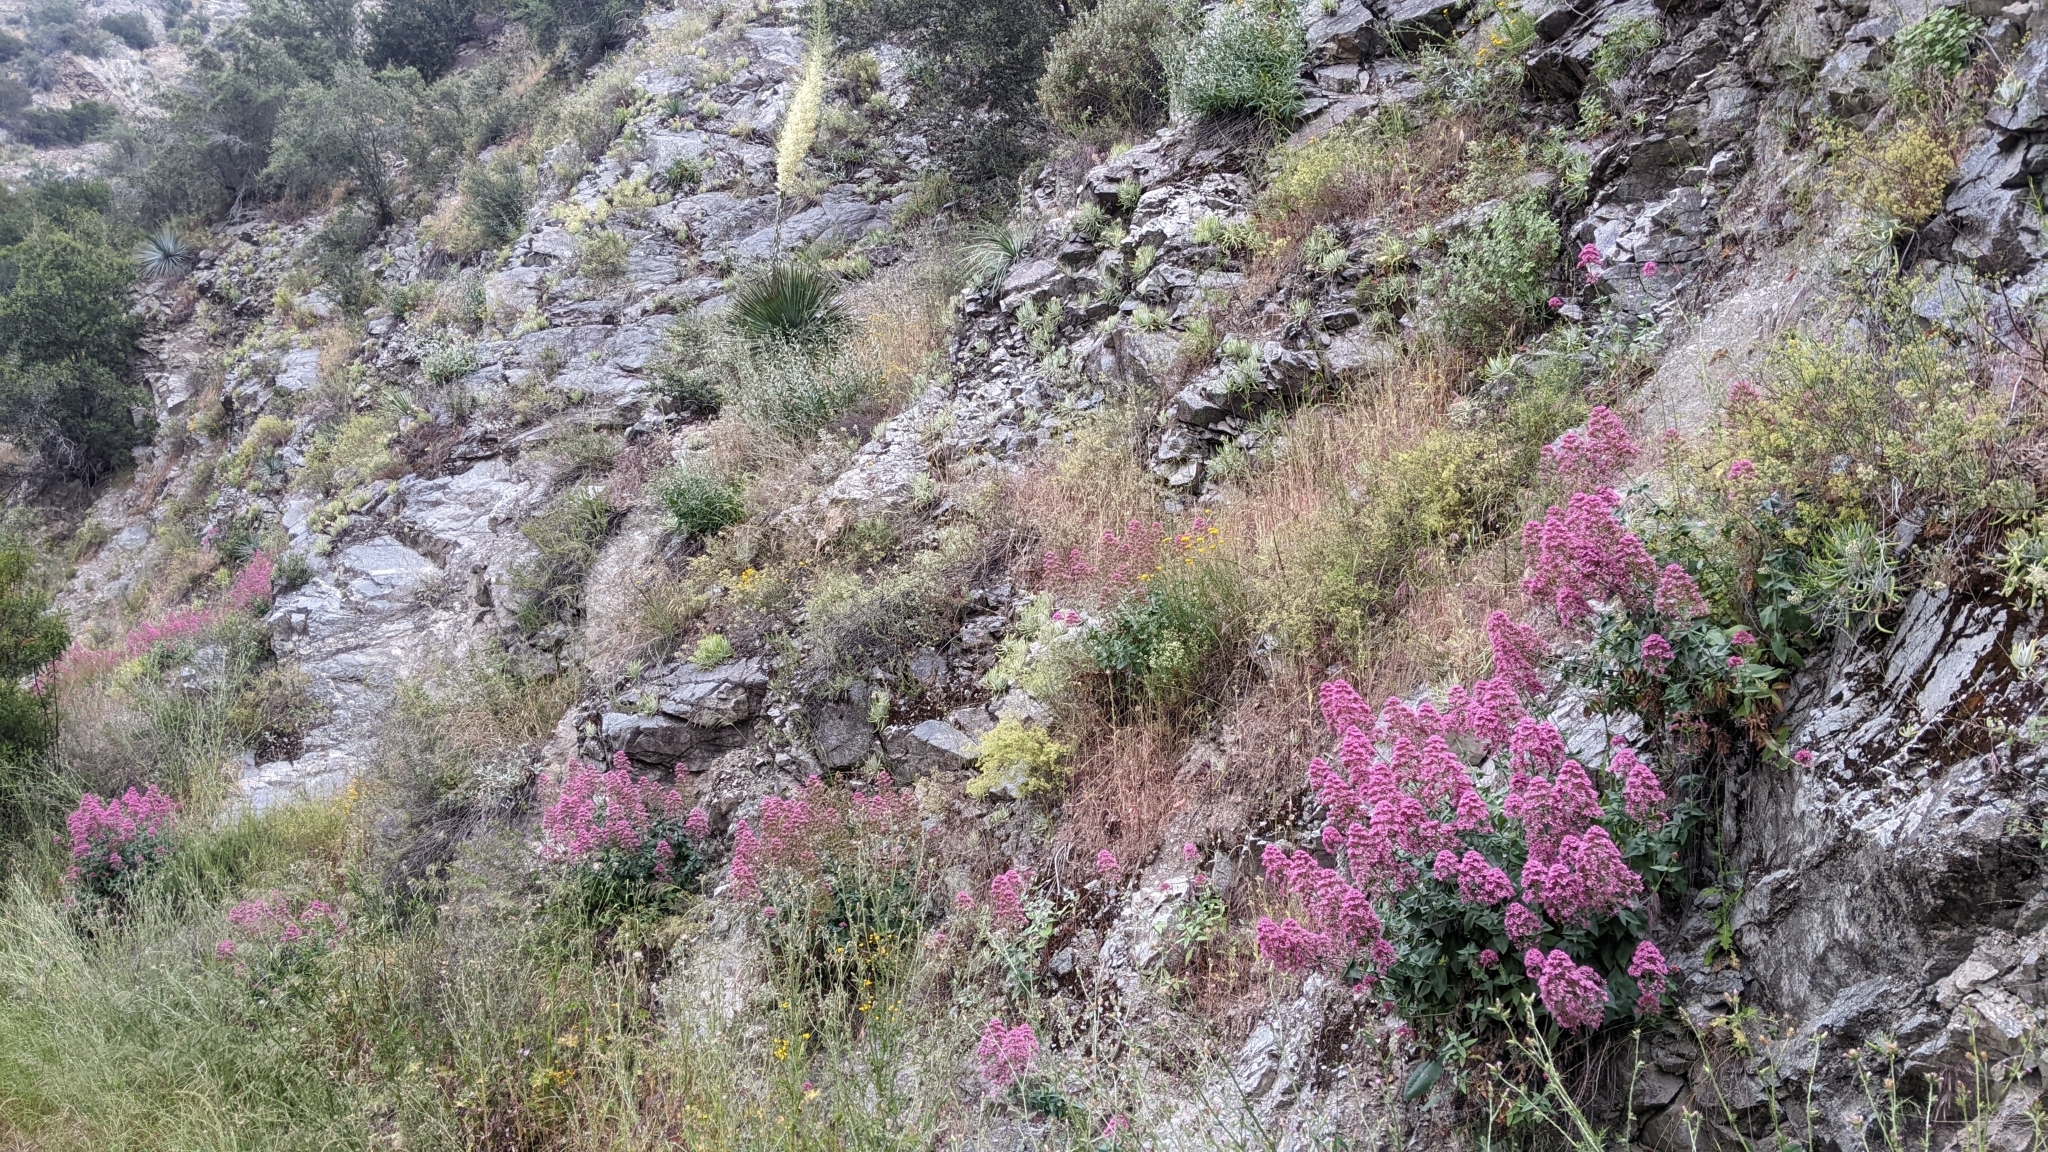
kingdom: Plantae
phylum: Tracheophyta
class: Magnoliopsida
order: Dipsacales
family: Caprifoliaceae
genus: Centranthus
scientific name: Centranthus ruber
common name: Red valerian
